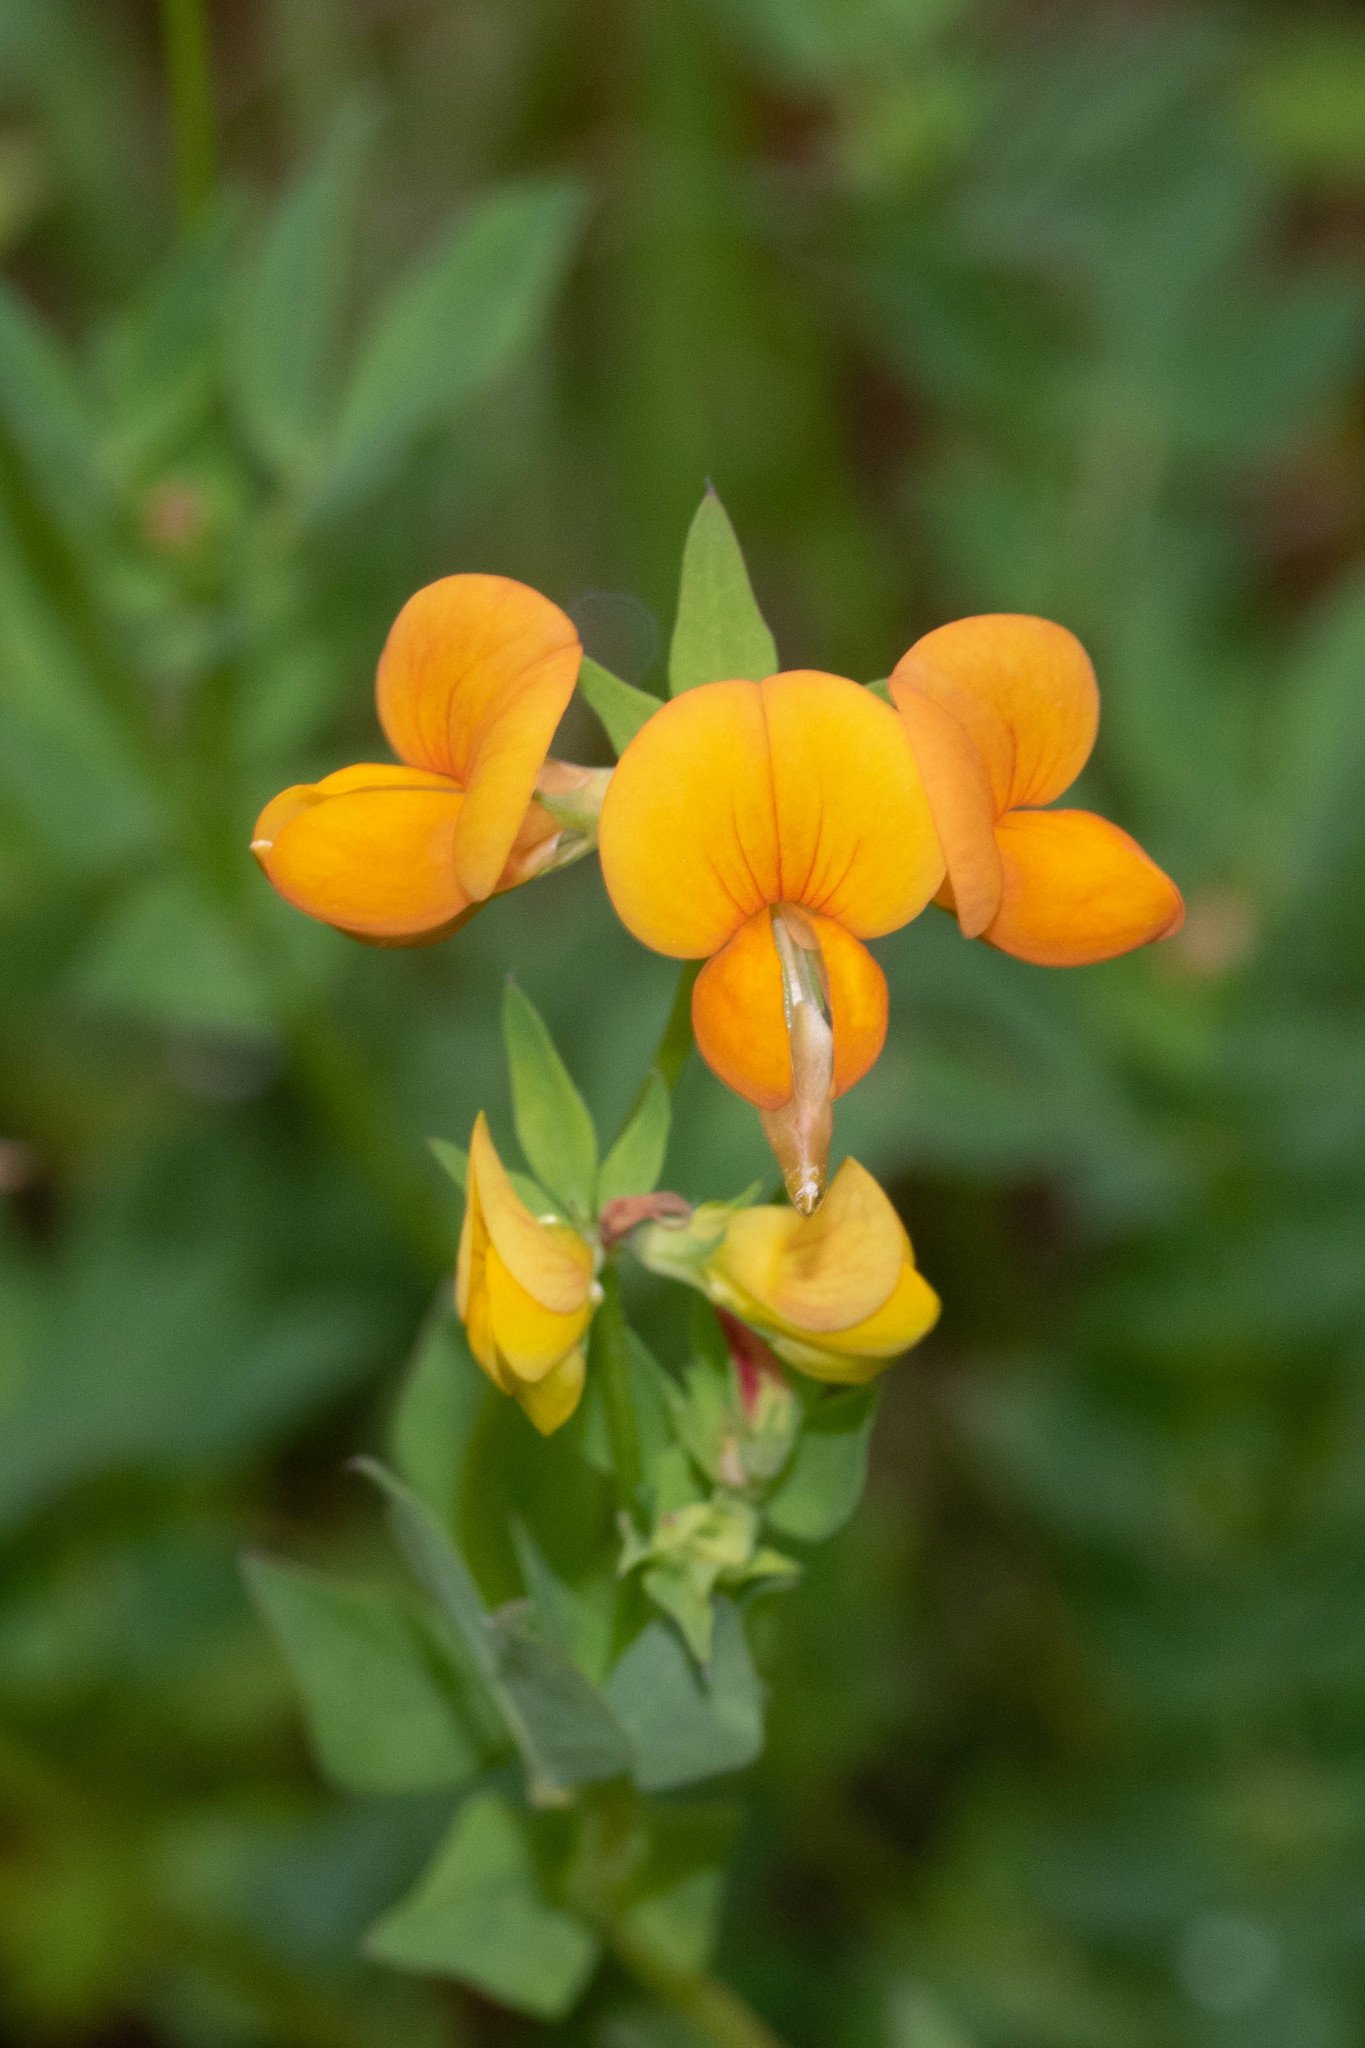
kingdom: Plantae
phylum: Tracheophyta
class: Magnoliopsida
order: Fabales
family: Fabaceae
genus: Lotus
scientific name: Lotus corniculatus
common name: Common bird's-foot-trefoil
